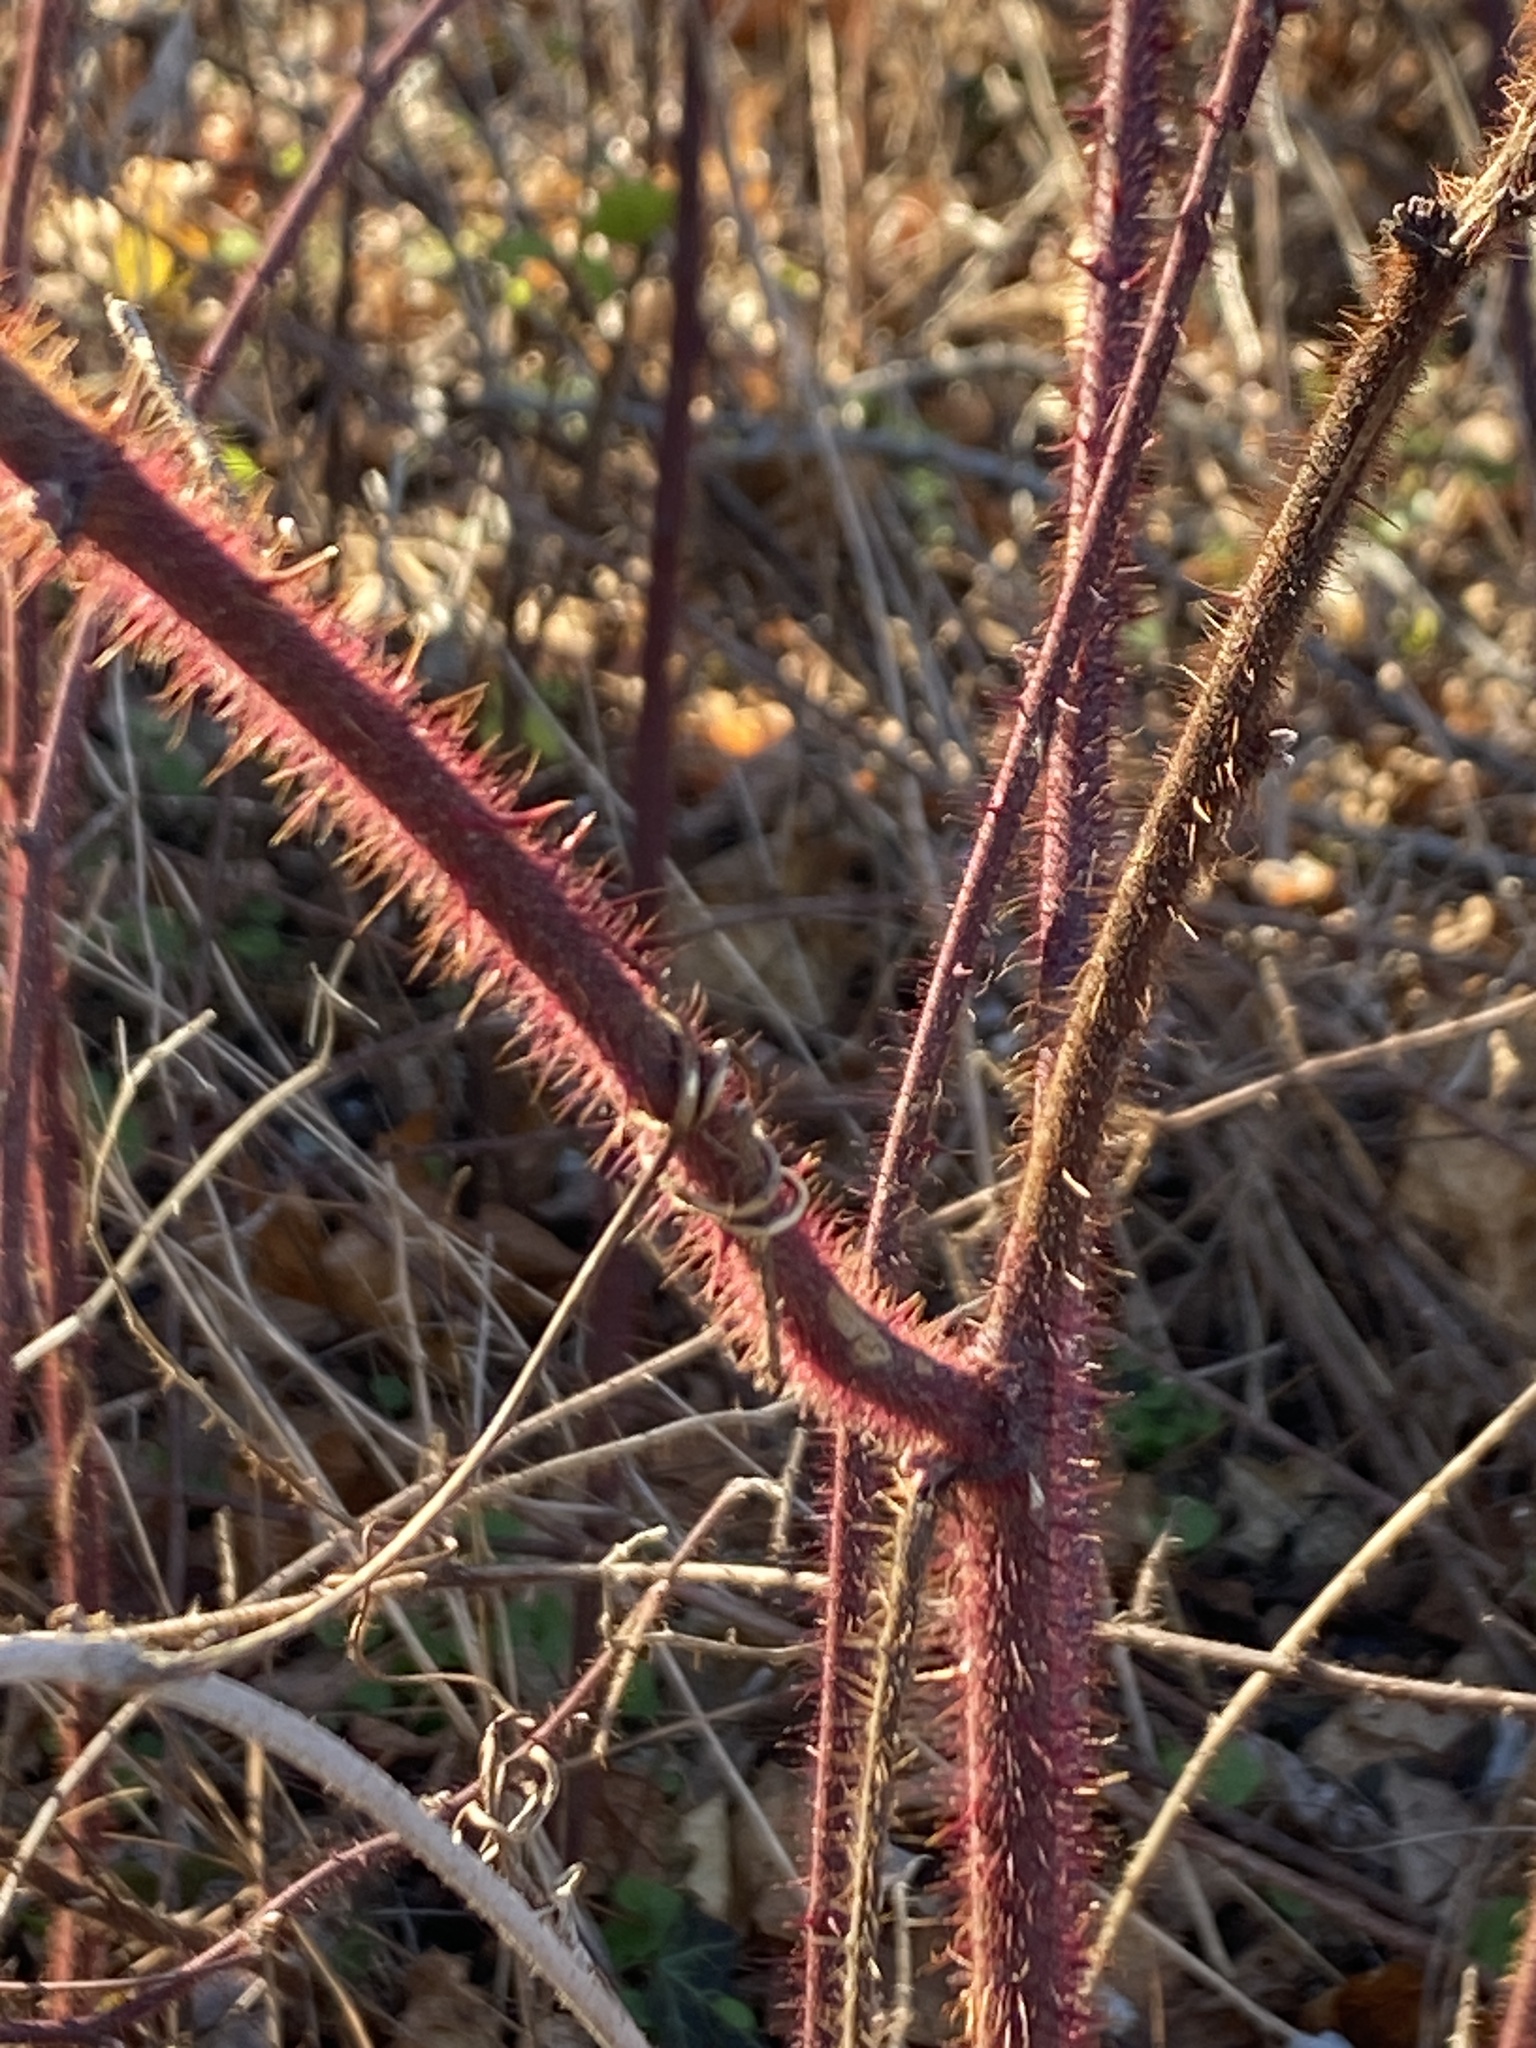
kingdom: Plantae
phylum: Tracheophyta
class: Magnoliopsida
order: Rosales
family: Rosaceae
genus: Rubus
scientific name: Rubus phoenicolasius
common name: Japanese wineberry
